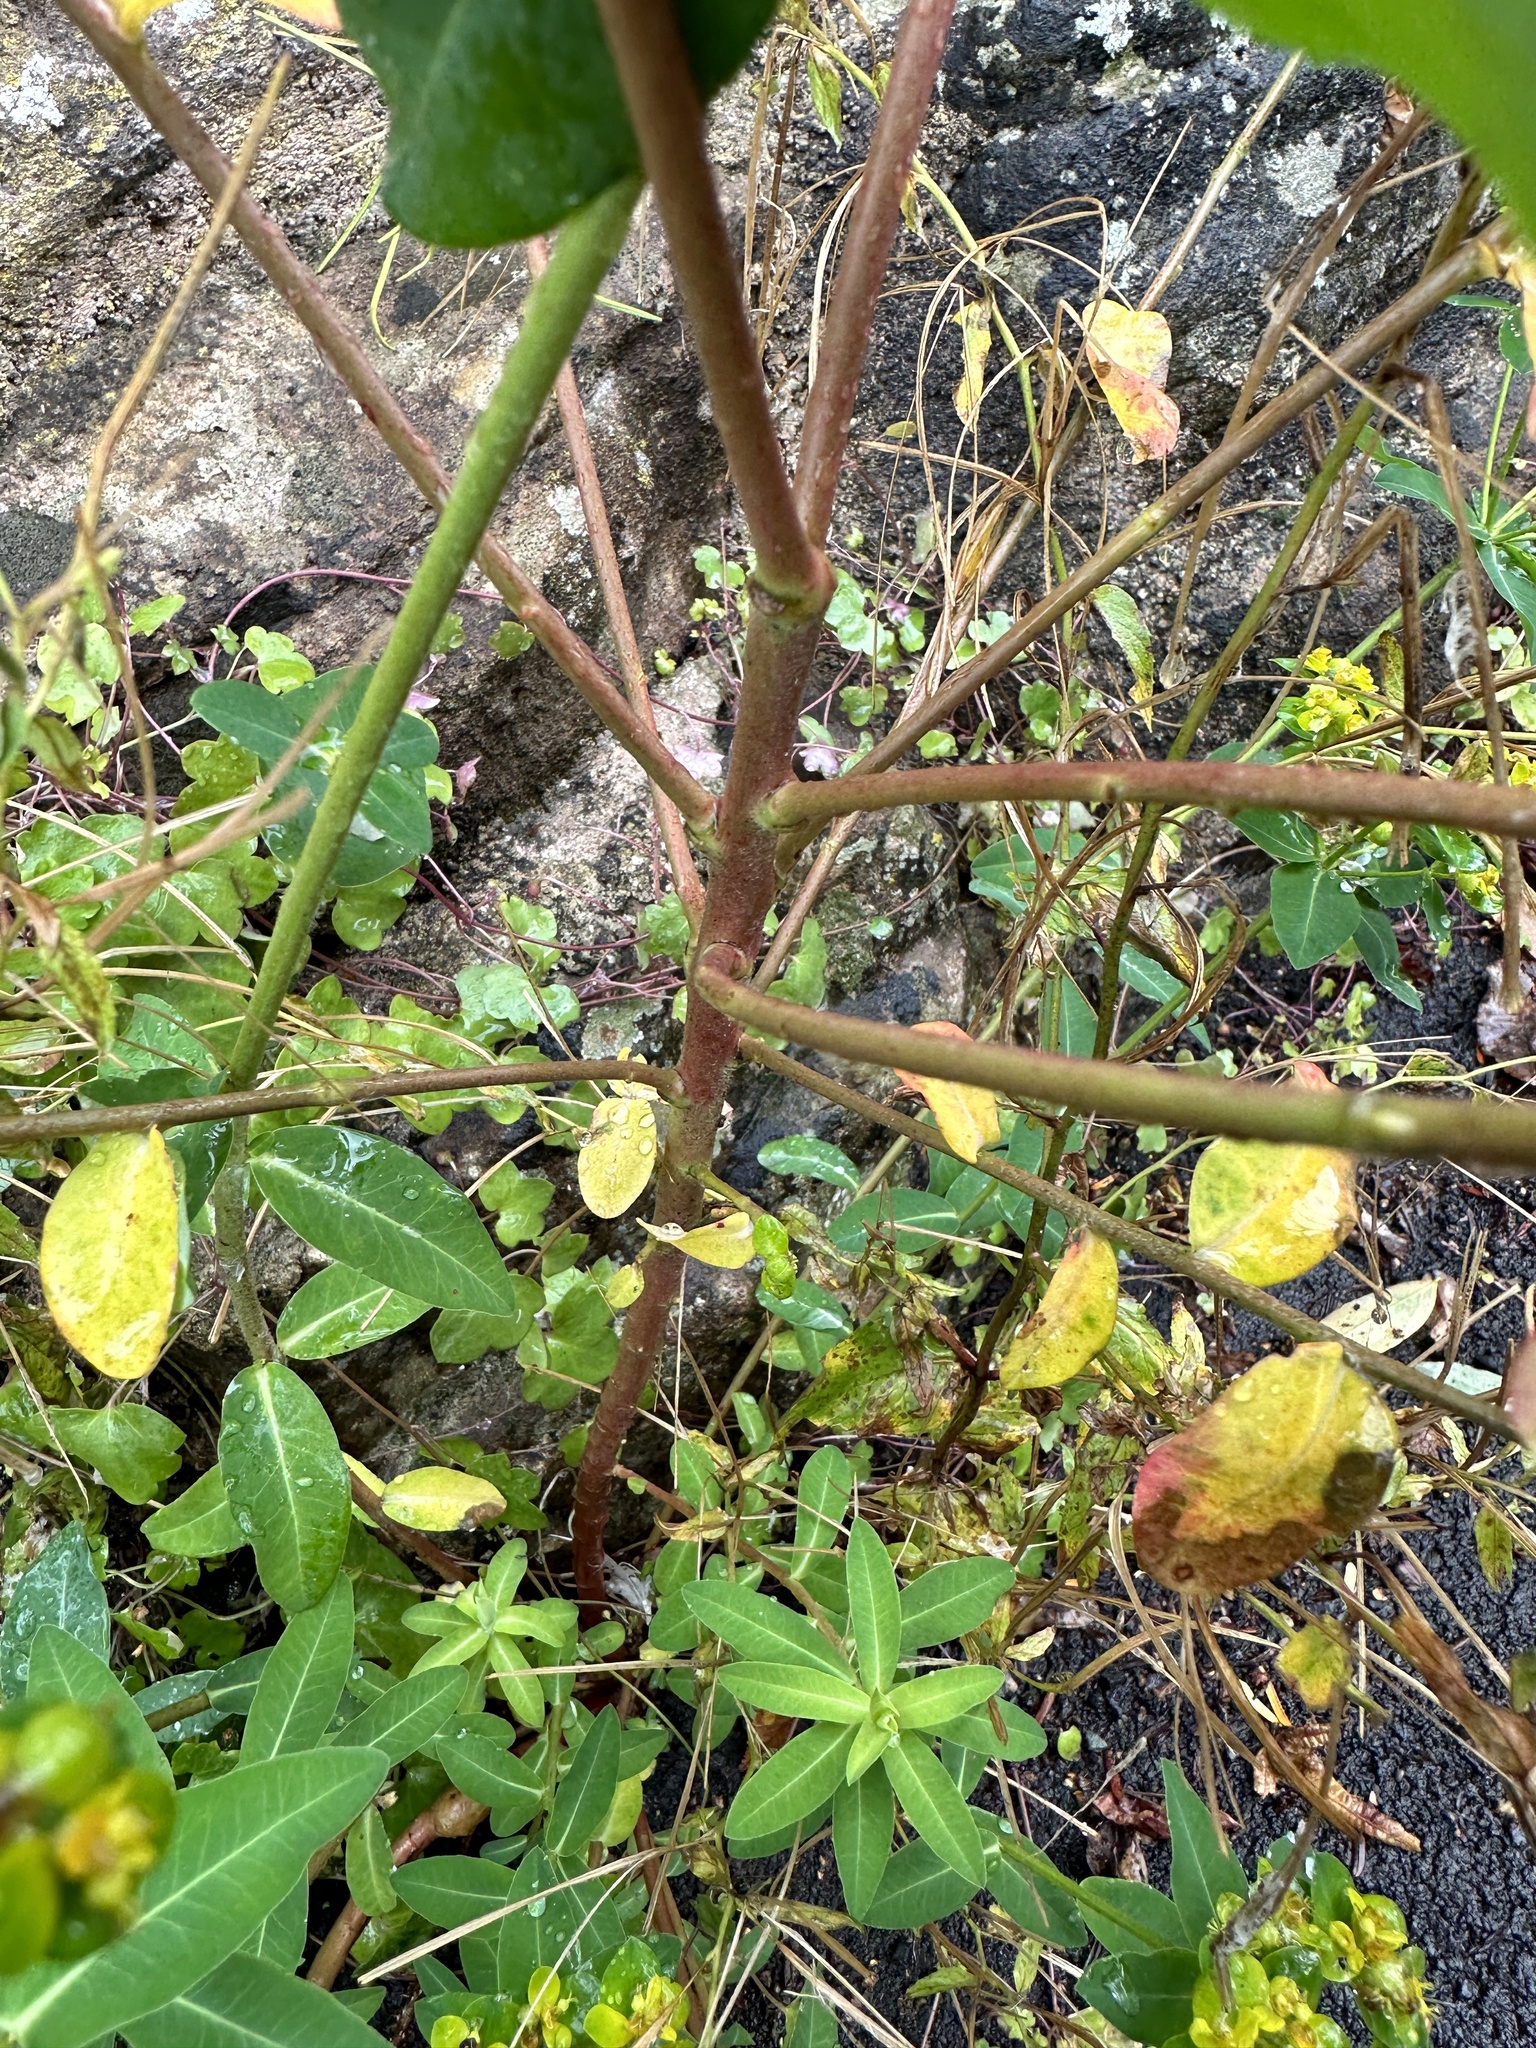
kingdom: Plantae
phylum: Tracheophyta
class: Magnoliopsida
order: Malpighiales
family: Euphorbiaceae
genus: Euphorbia
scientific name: Euphorbia oblongata
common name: Balkan spurge
